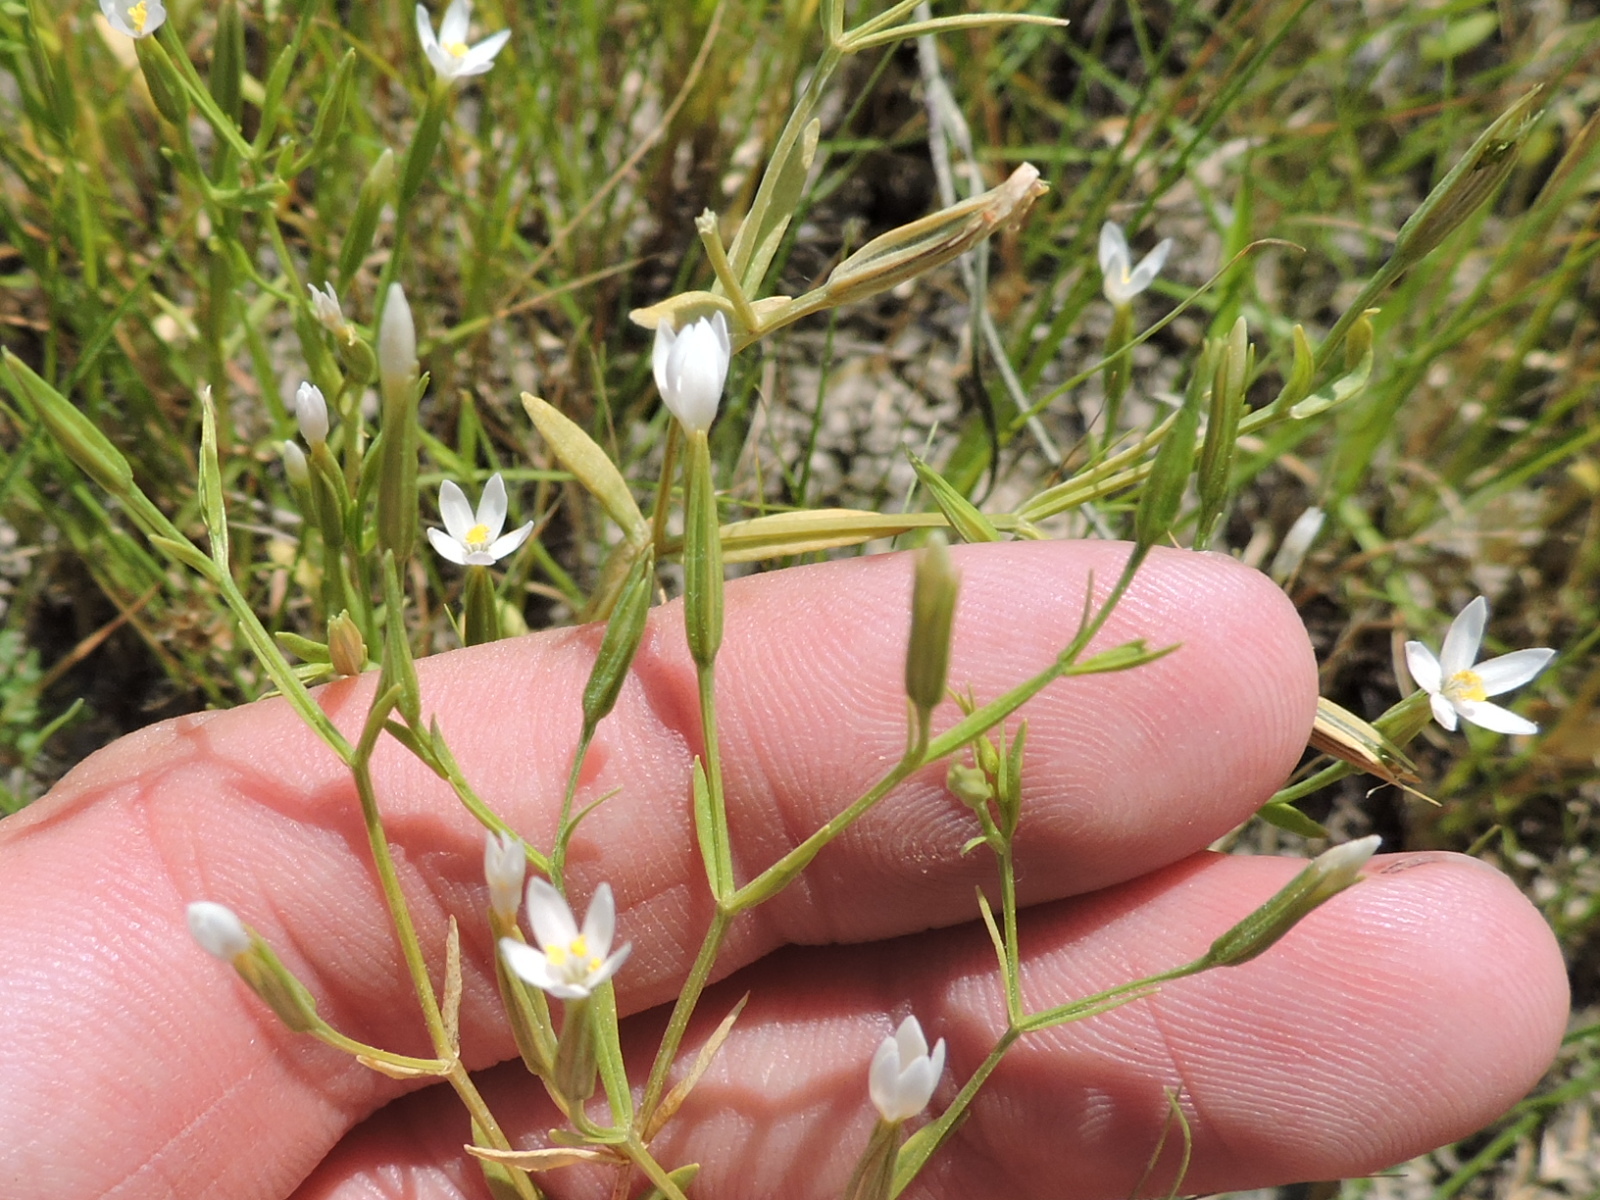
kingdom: Plantae
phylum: Tracheophyta
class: Magnoliopsida
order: Gentianales
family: Gentianaceae
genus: Zeltnera
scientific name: Zeltnera texensis
